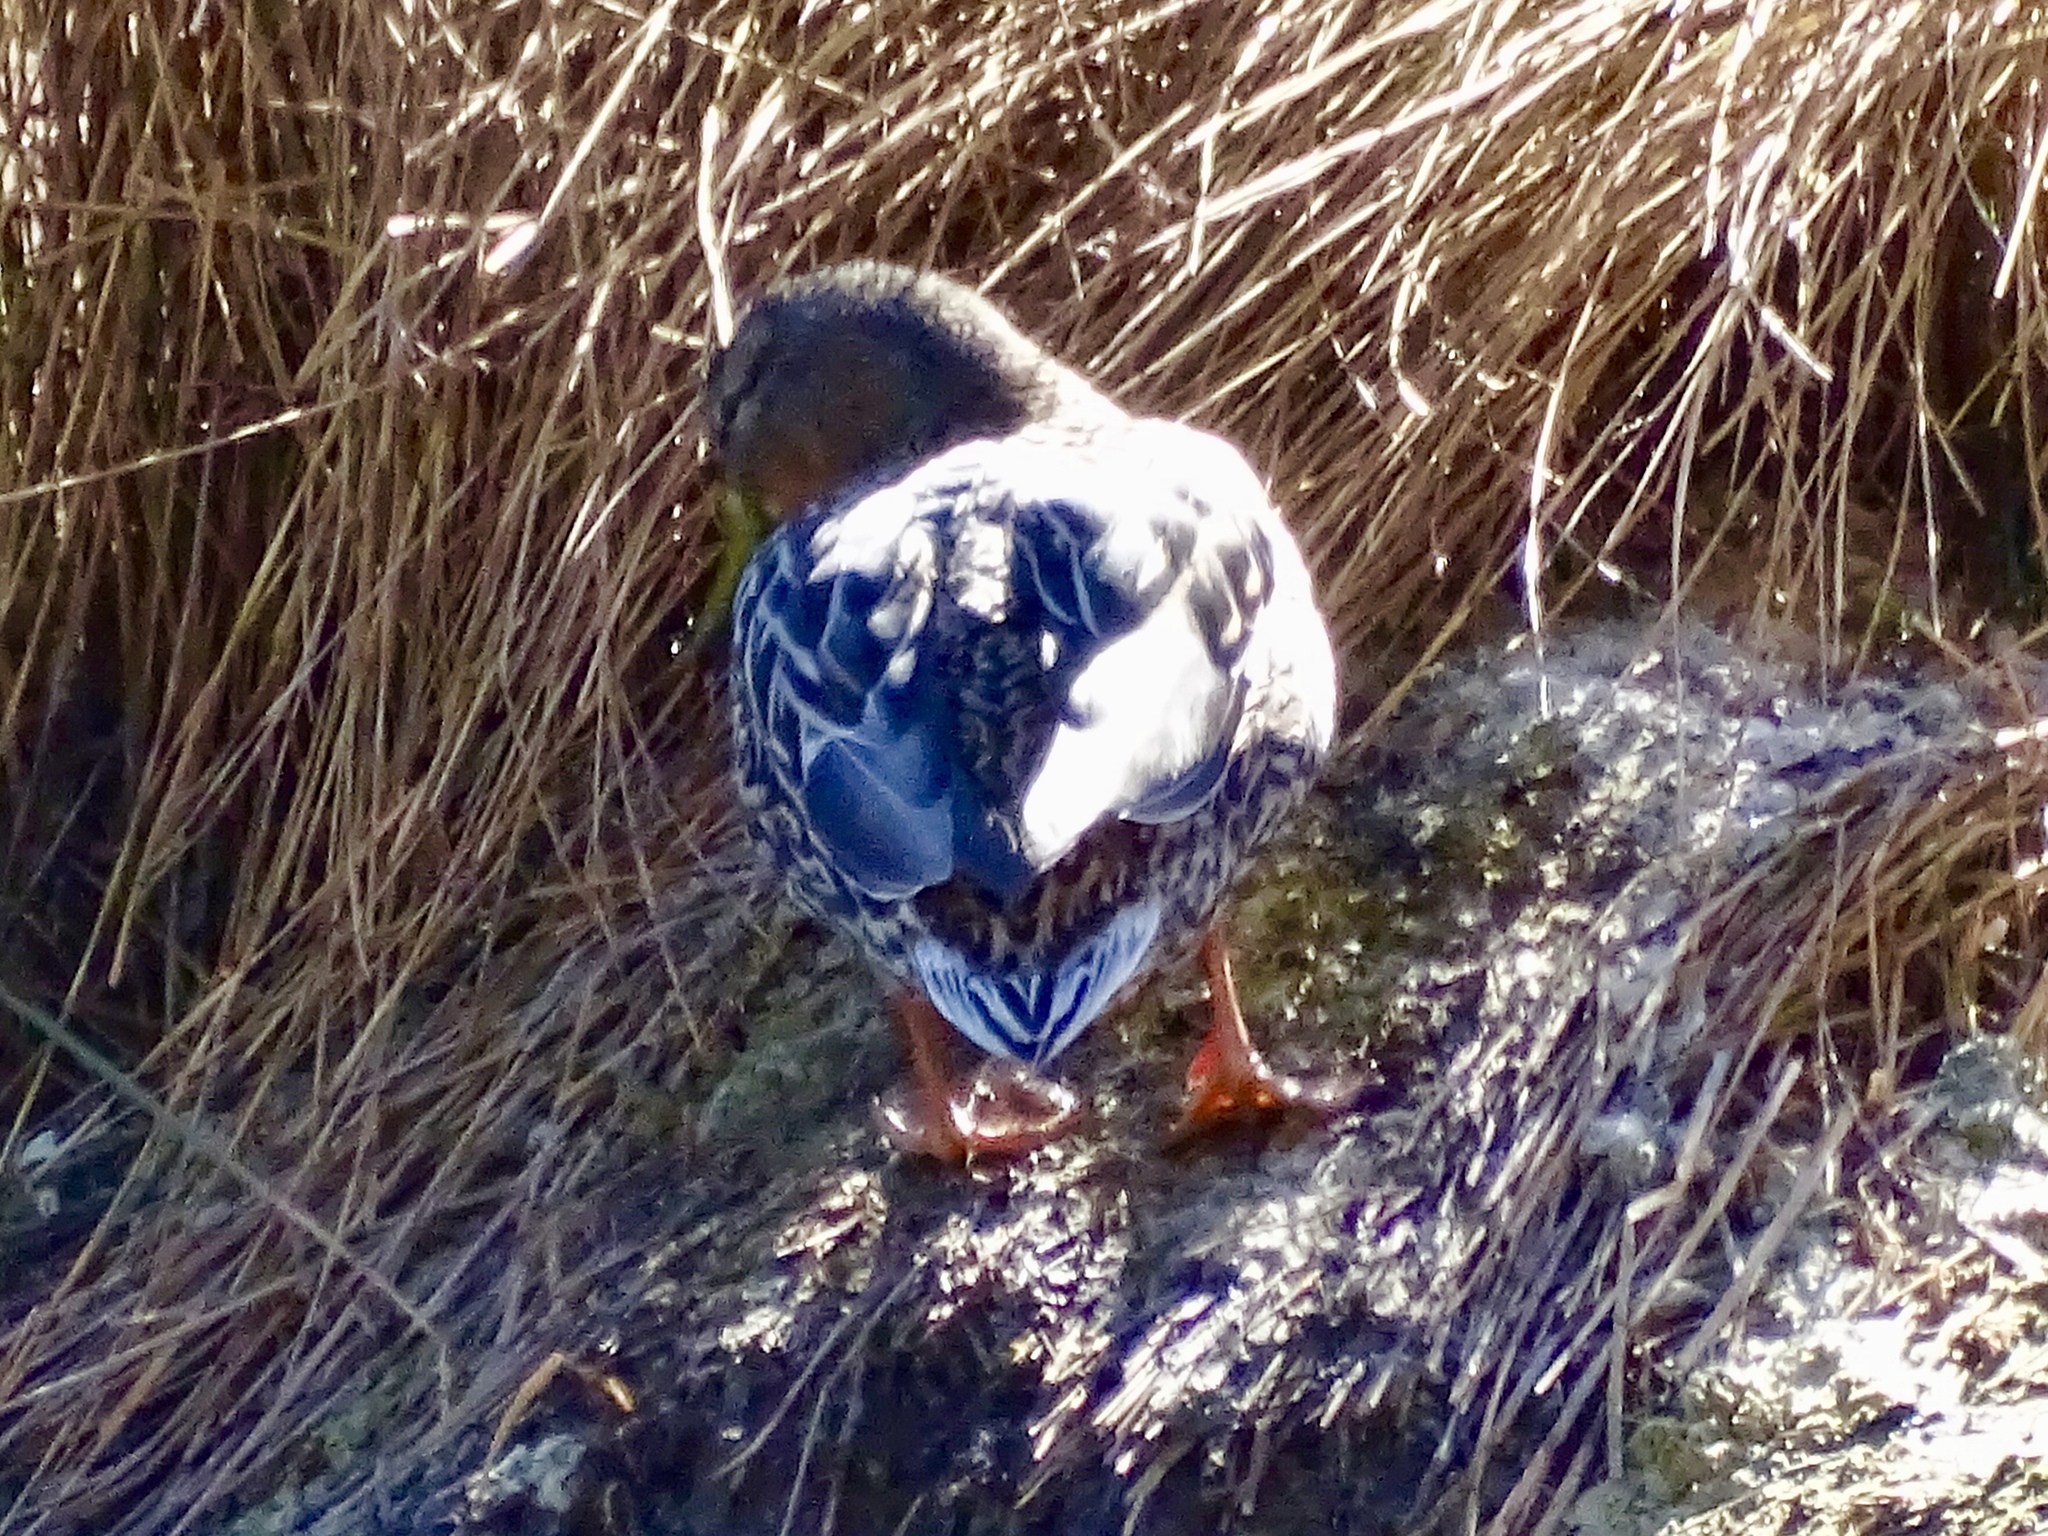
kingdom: Animalia
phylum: Chordata
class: Aves
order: Anseriformes
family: Anatidae
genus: Anas
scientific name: Anas platyrhynchos
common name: Mallard
